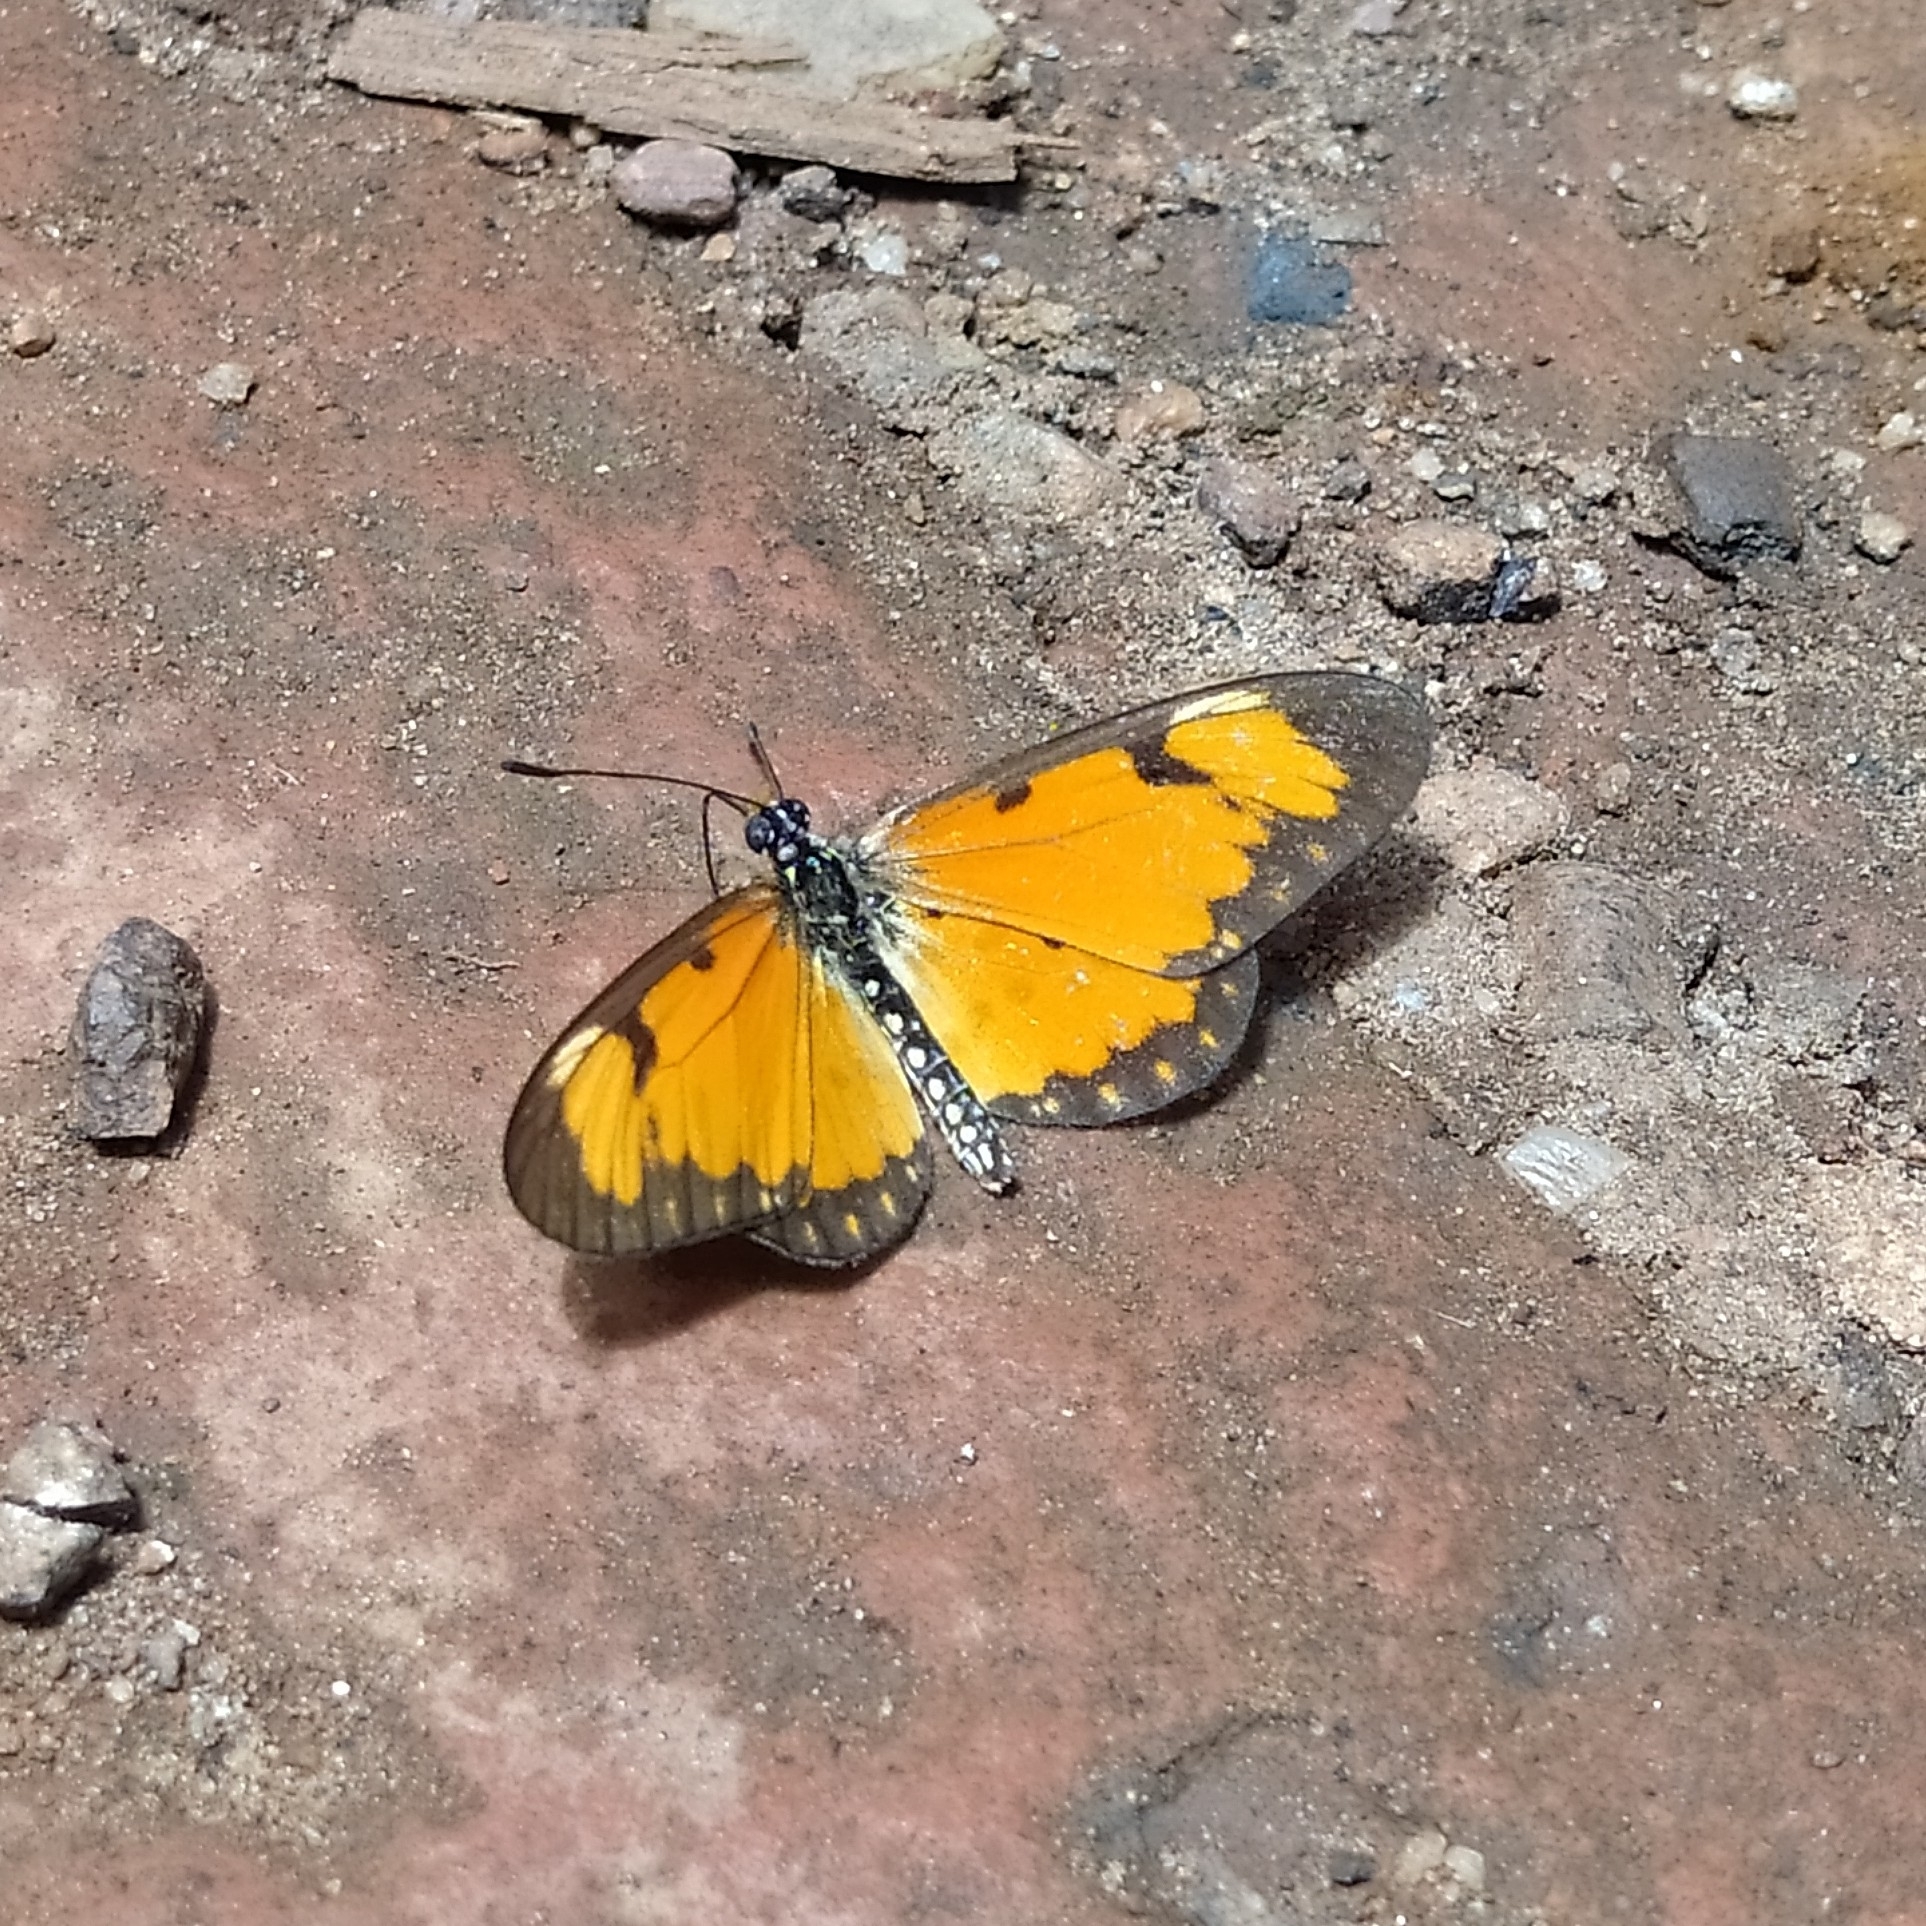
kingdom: Animalia
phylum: Arthropoda
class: Insecta
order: Lepidoptera
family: Nymphalidae
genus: Acraea
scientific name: Acraea Telchinia serena
